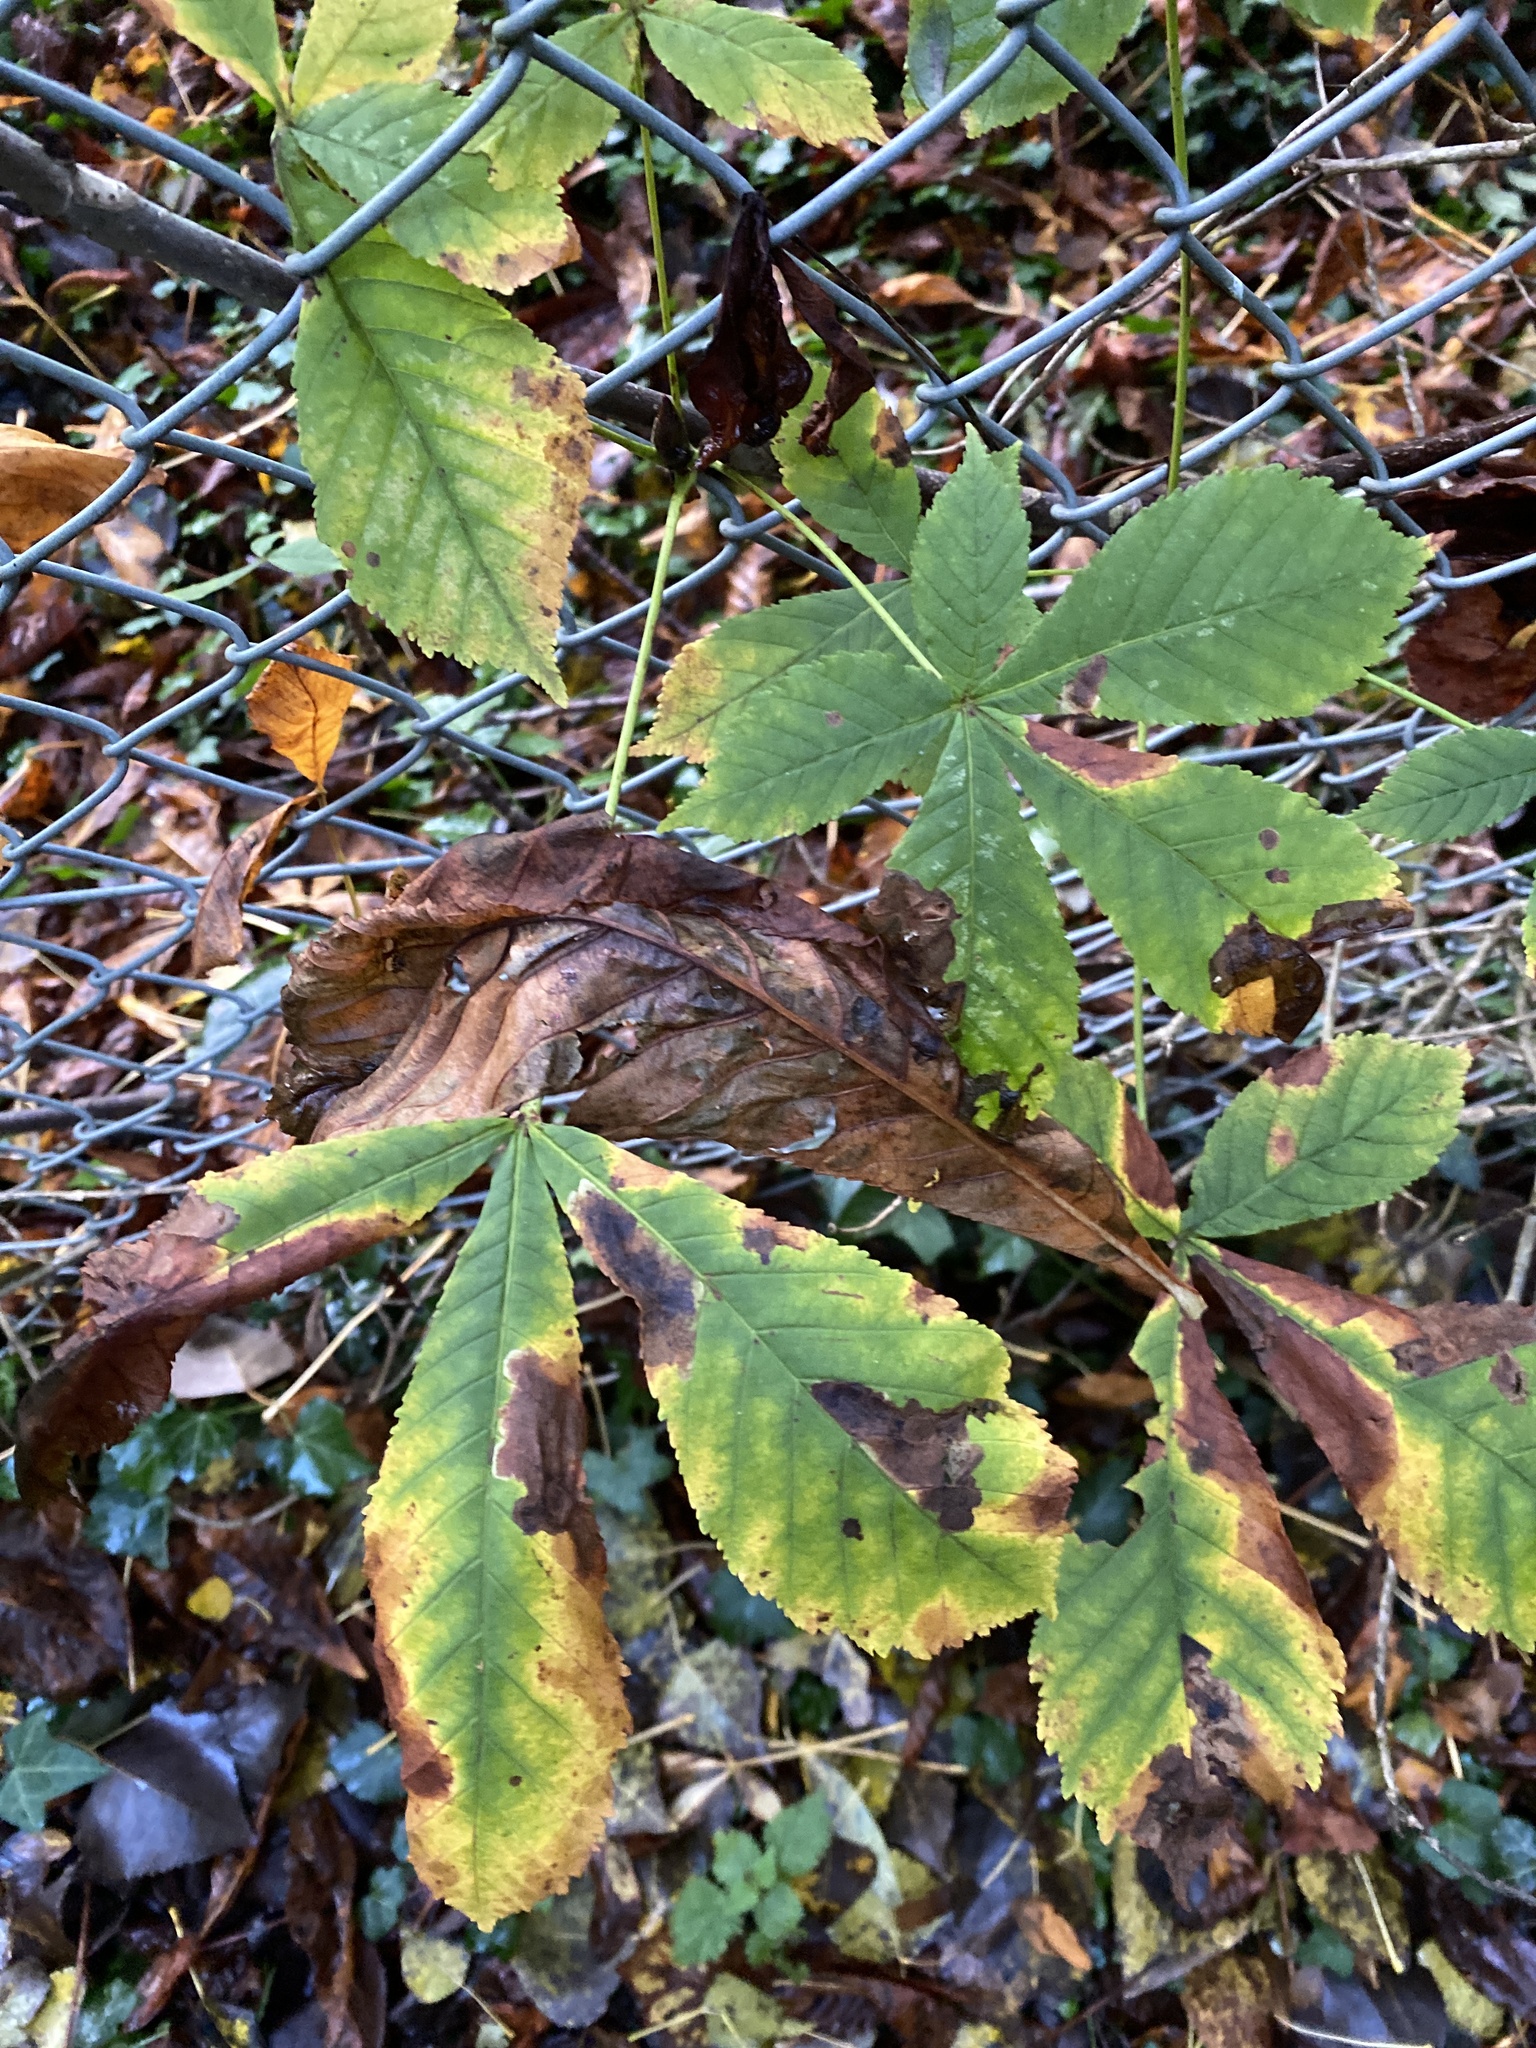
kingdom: Plantae
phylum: Tracheophyta
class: Magnoliopsida
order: Sapindales
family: Sapindaceae
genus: Aesculus
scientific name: Aesculus hippocastanum
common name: Horse-chestnut
